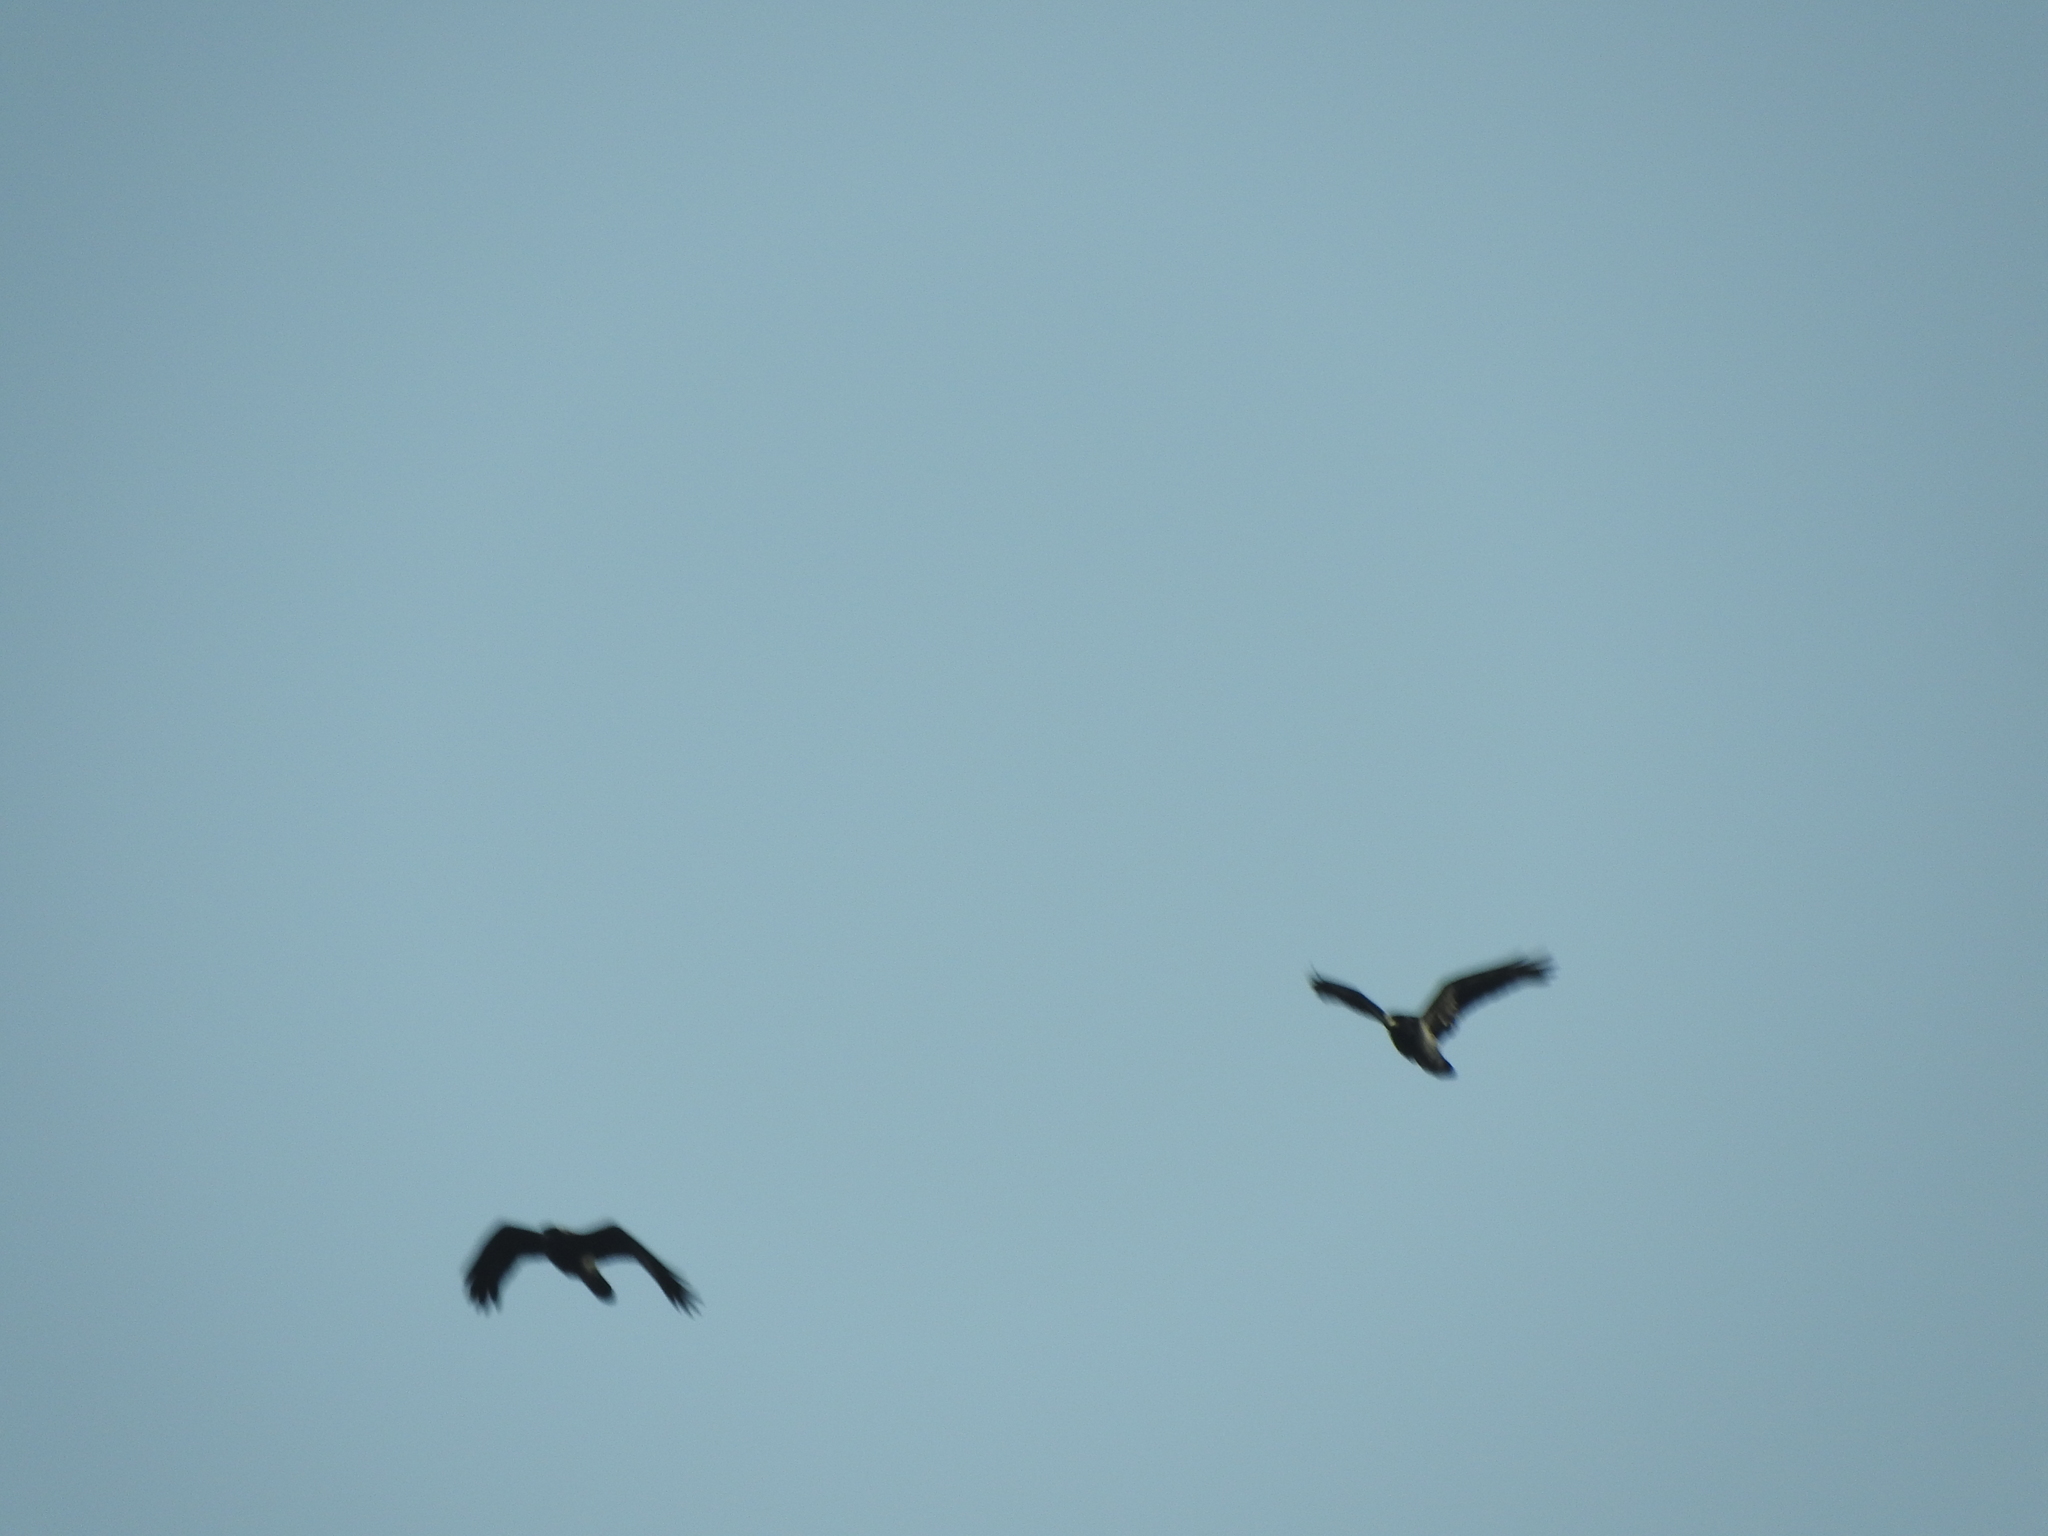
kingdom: Animalia
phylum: Chordata
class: Aves
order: Passeriformes
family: Corvidae
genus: Corvus
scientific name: Corvus corax
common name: Common raven
